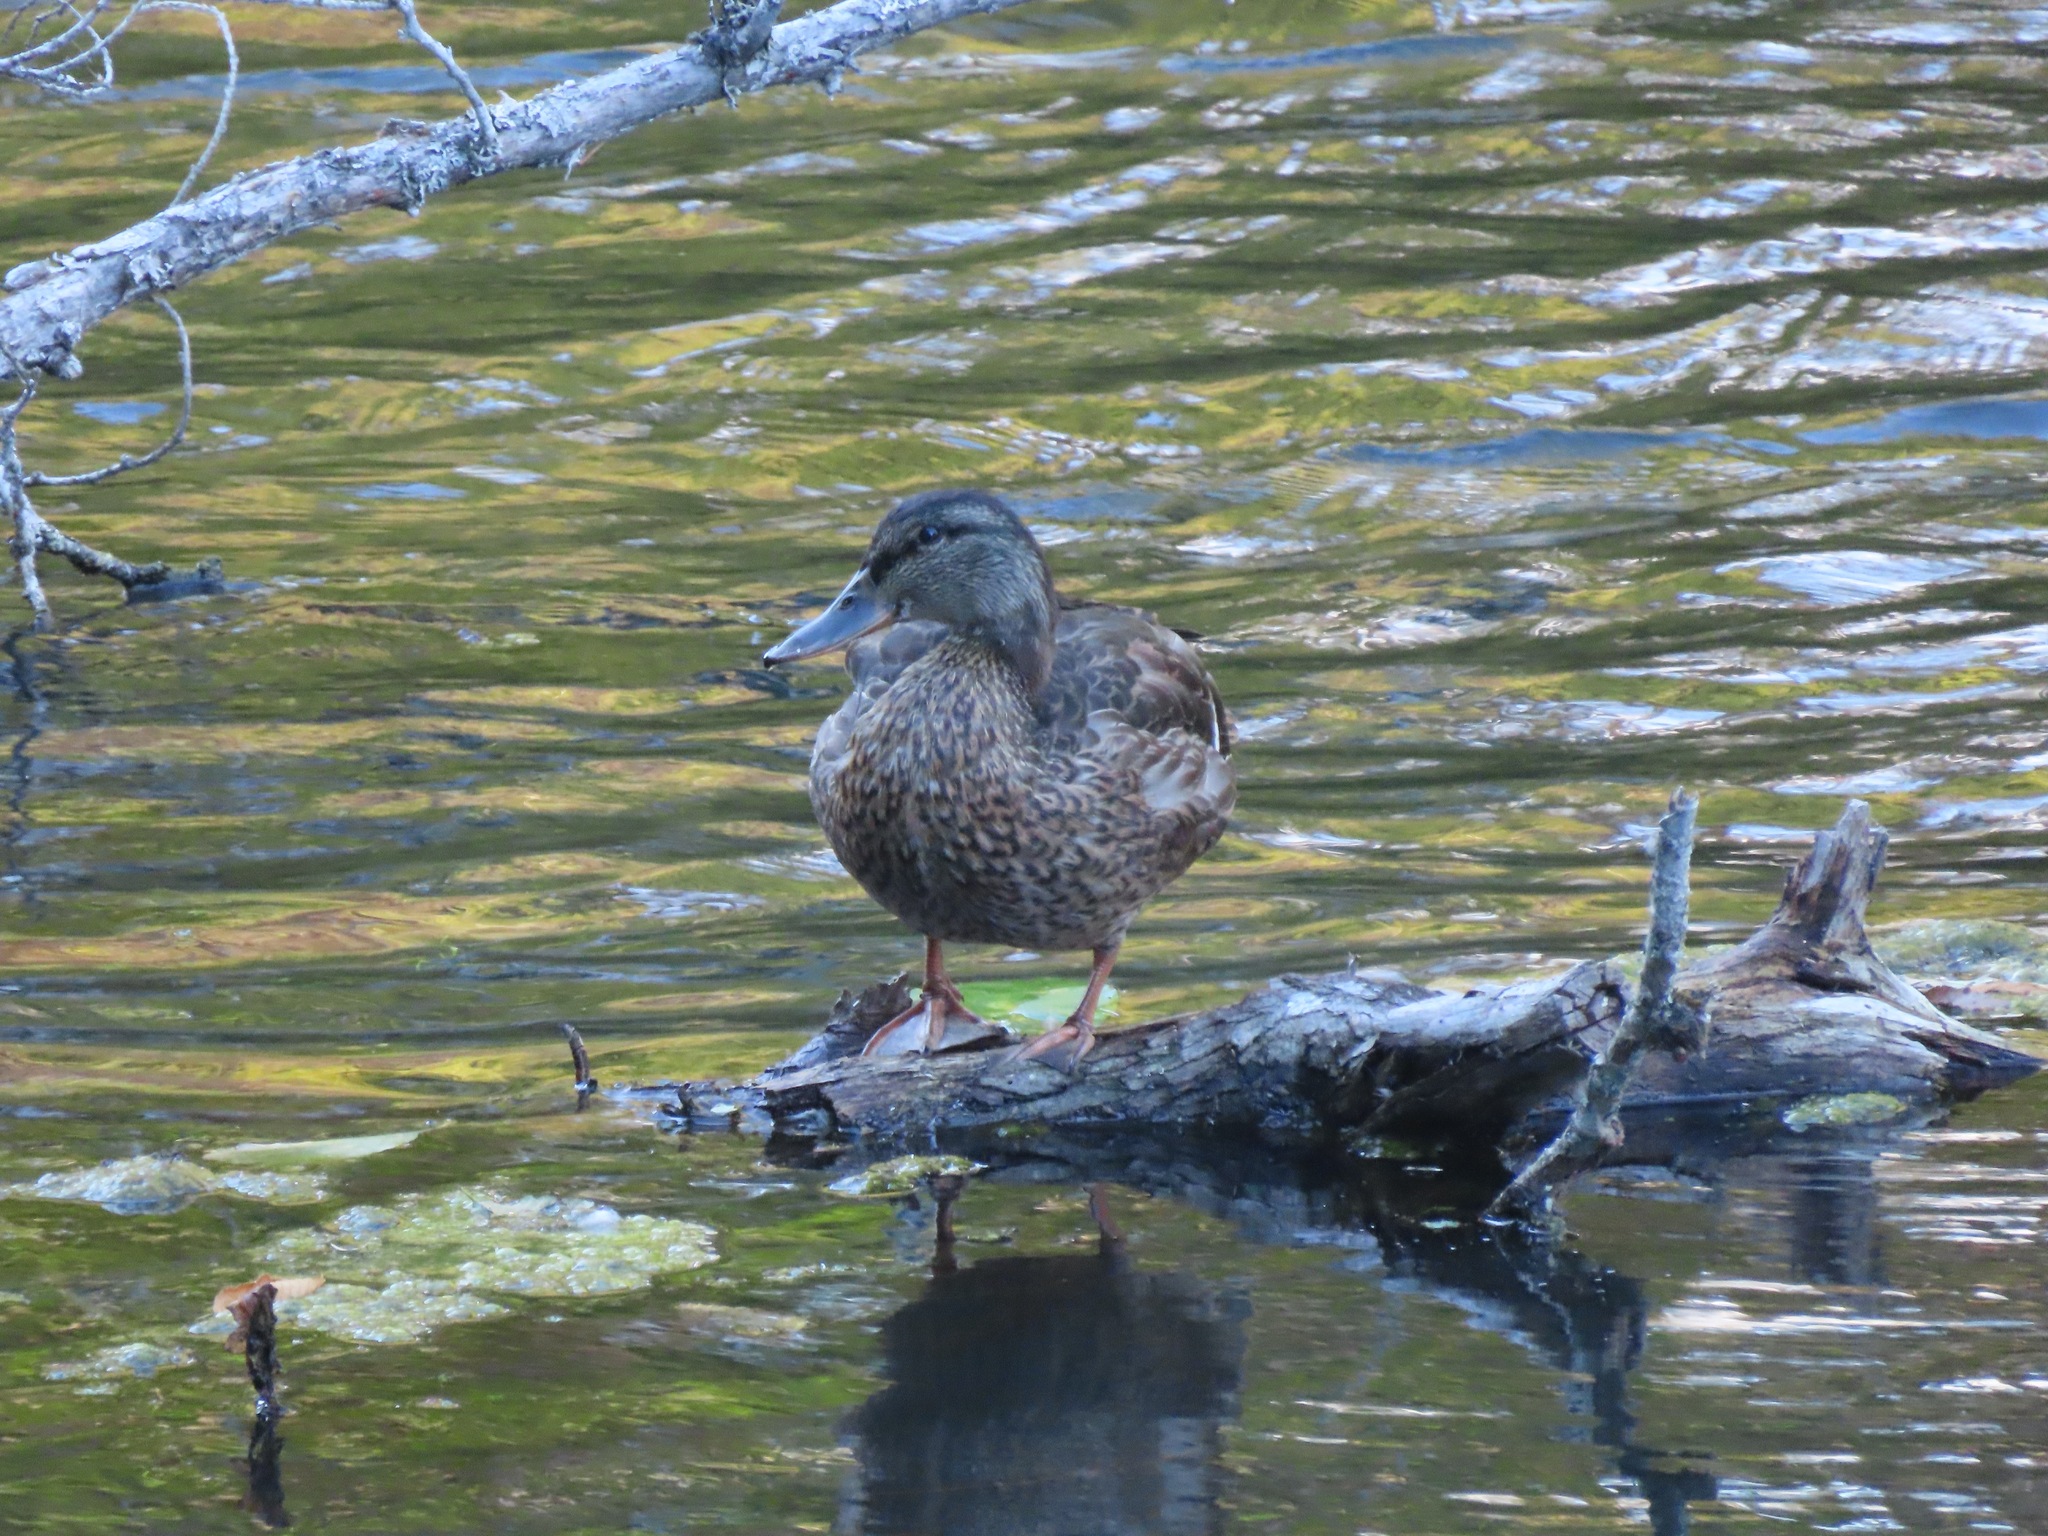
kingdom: Animalia
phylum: Chordata
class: Aves
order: Anseriformes
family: Anatidae
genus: Anas
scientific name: Anas platyrhynchos
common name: Mallard
